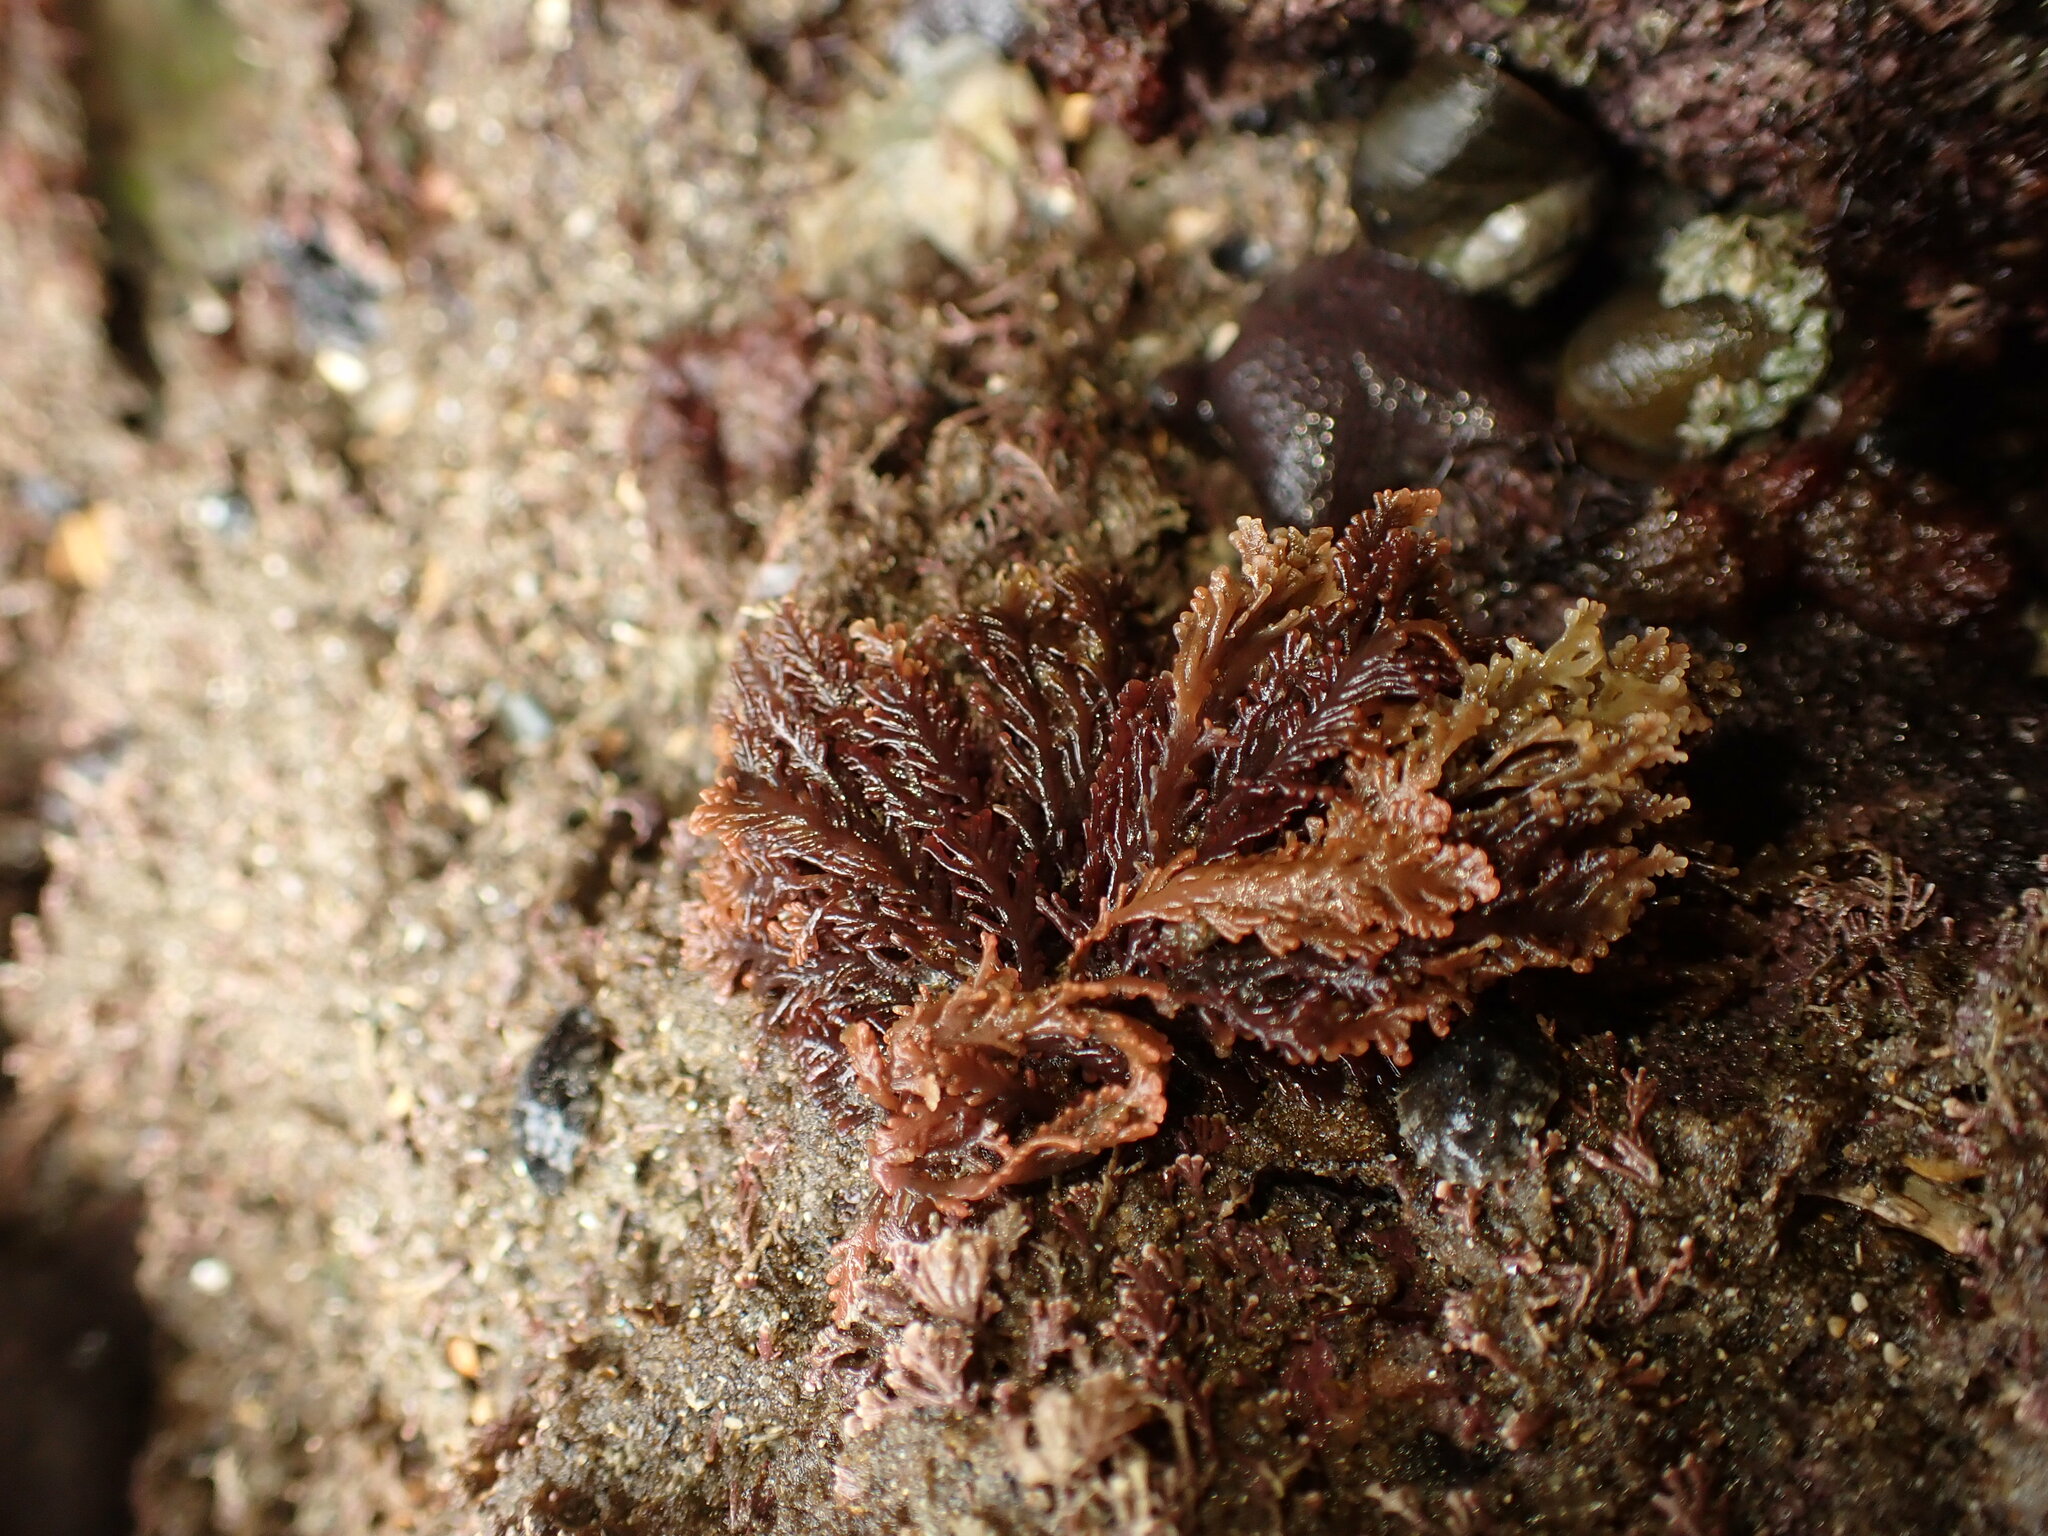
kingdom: Plantae
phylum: Rhodophyta
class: Florideophyceae
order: Ceramiales
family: Rhodomelaceae
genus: Laurencia
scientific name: Laurencia distichophylla
